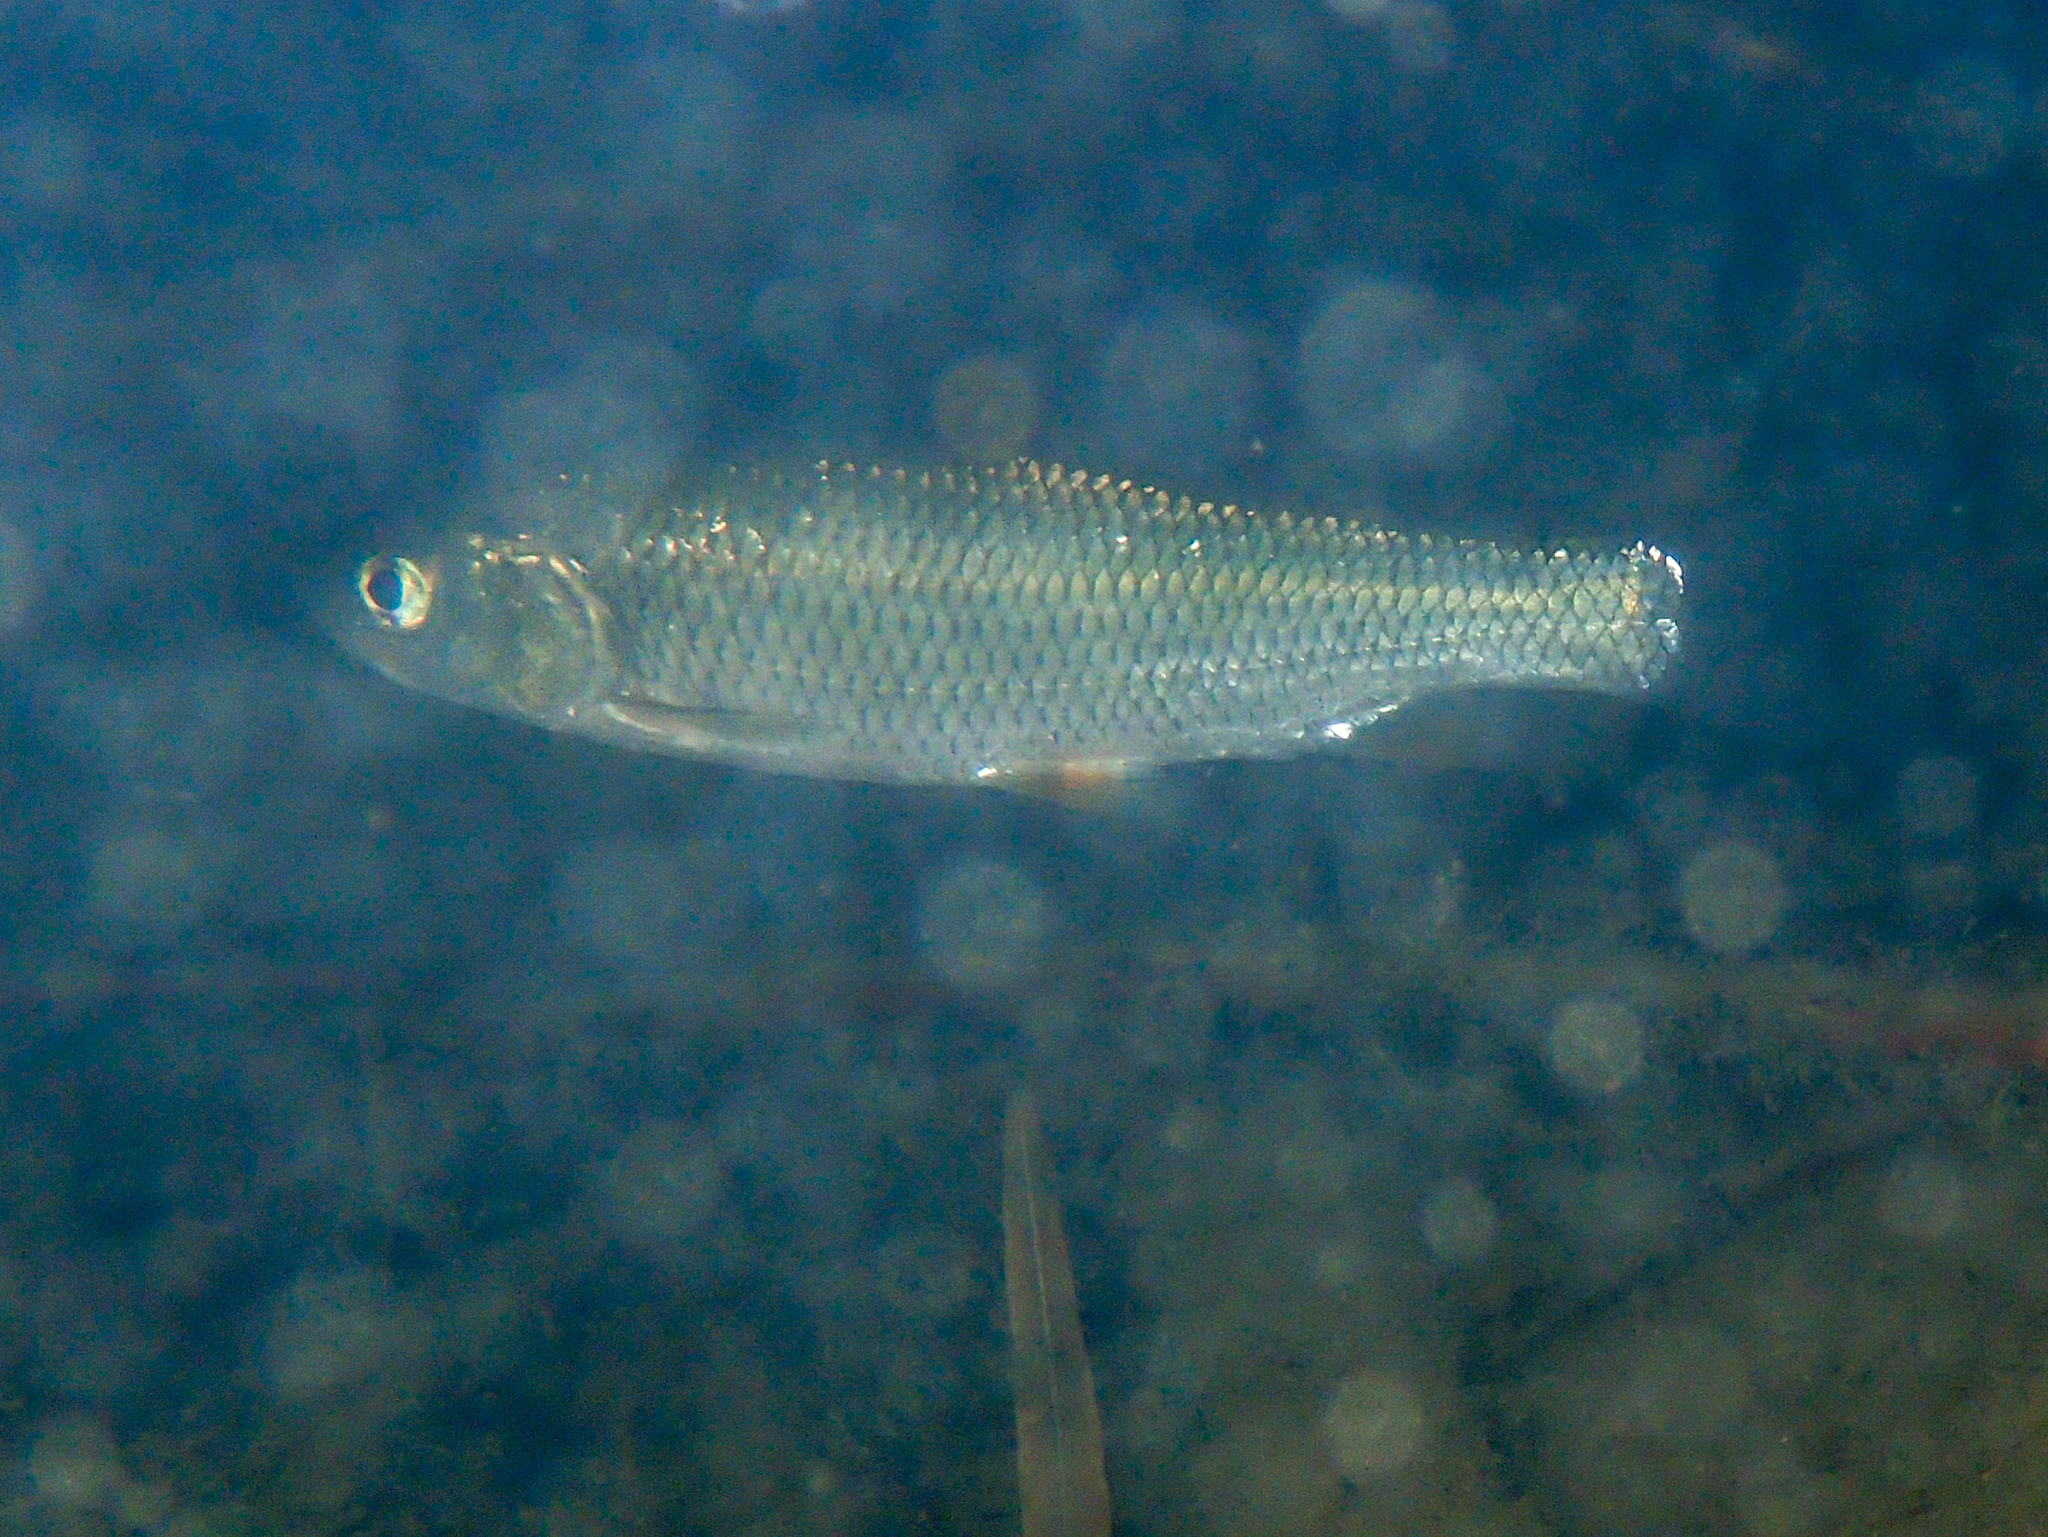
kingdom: Animalia
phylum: Chordata
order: Cypriniformes
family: Cyprinidae
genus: Squalius
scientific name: Squalius cephalus
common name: Chub
